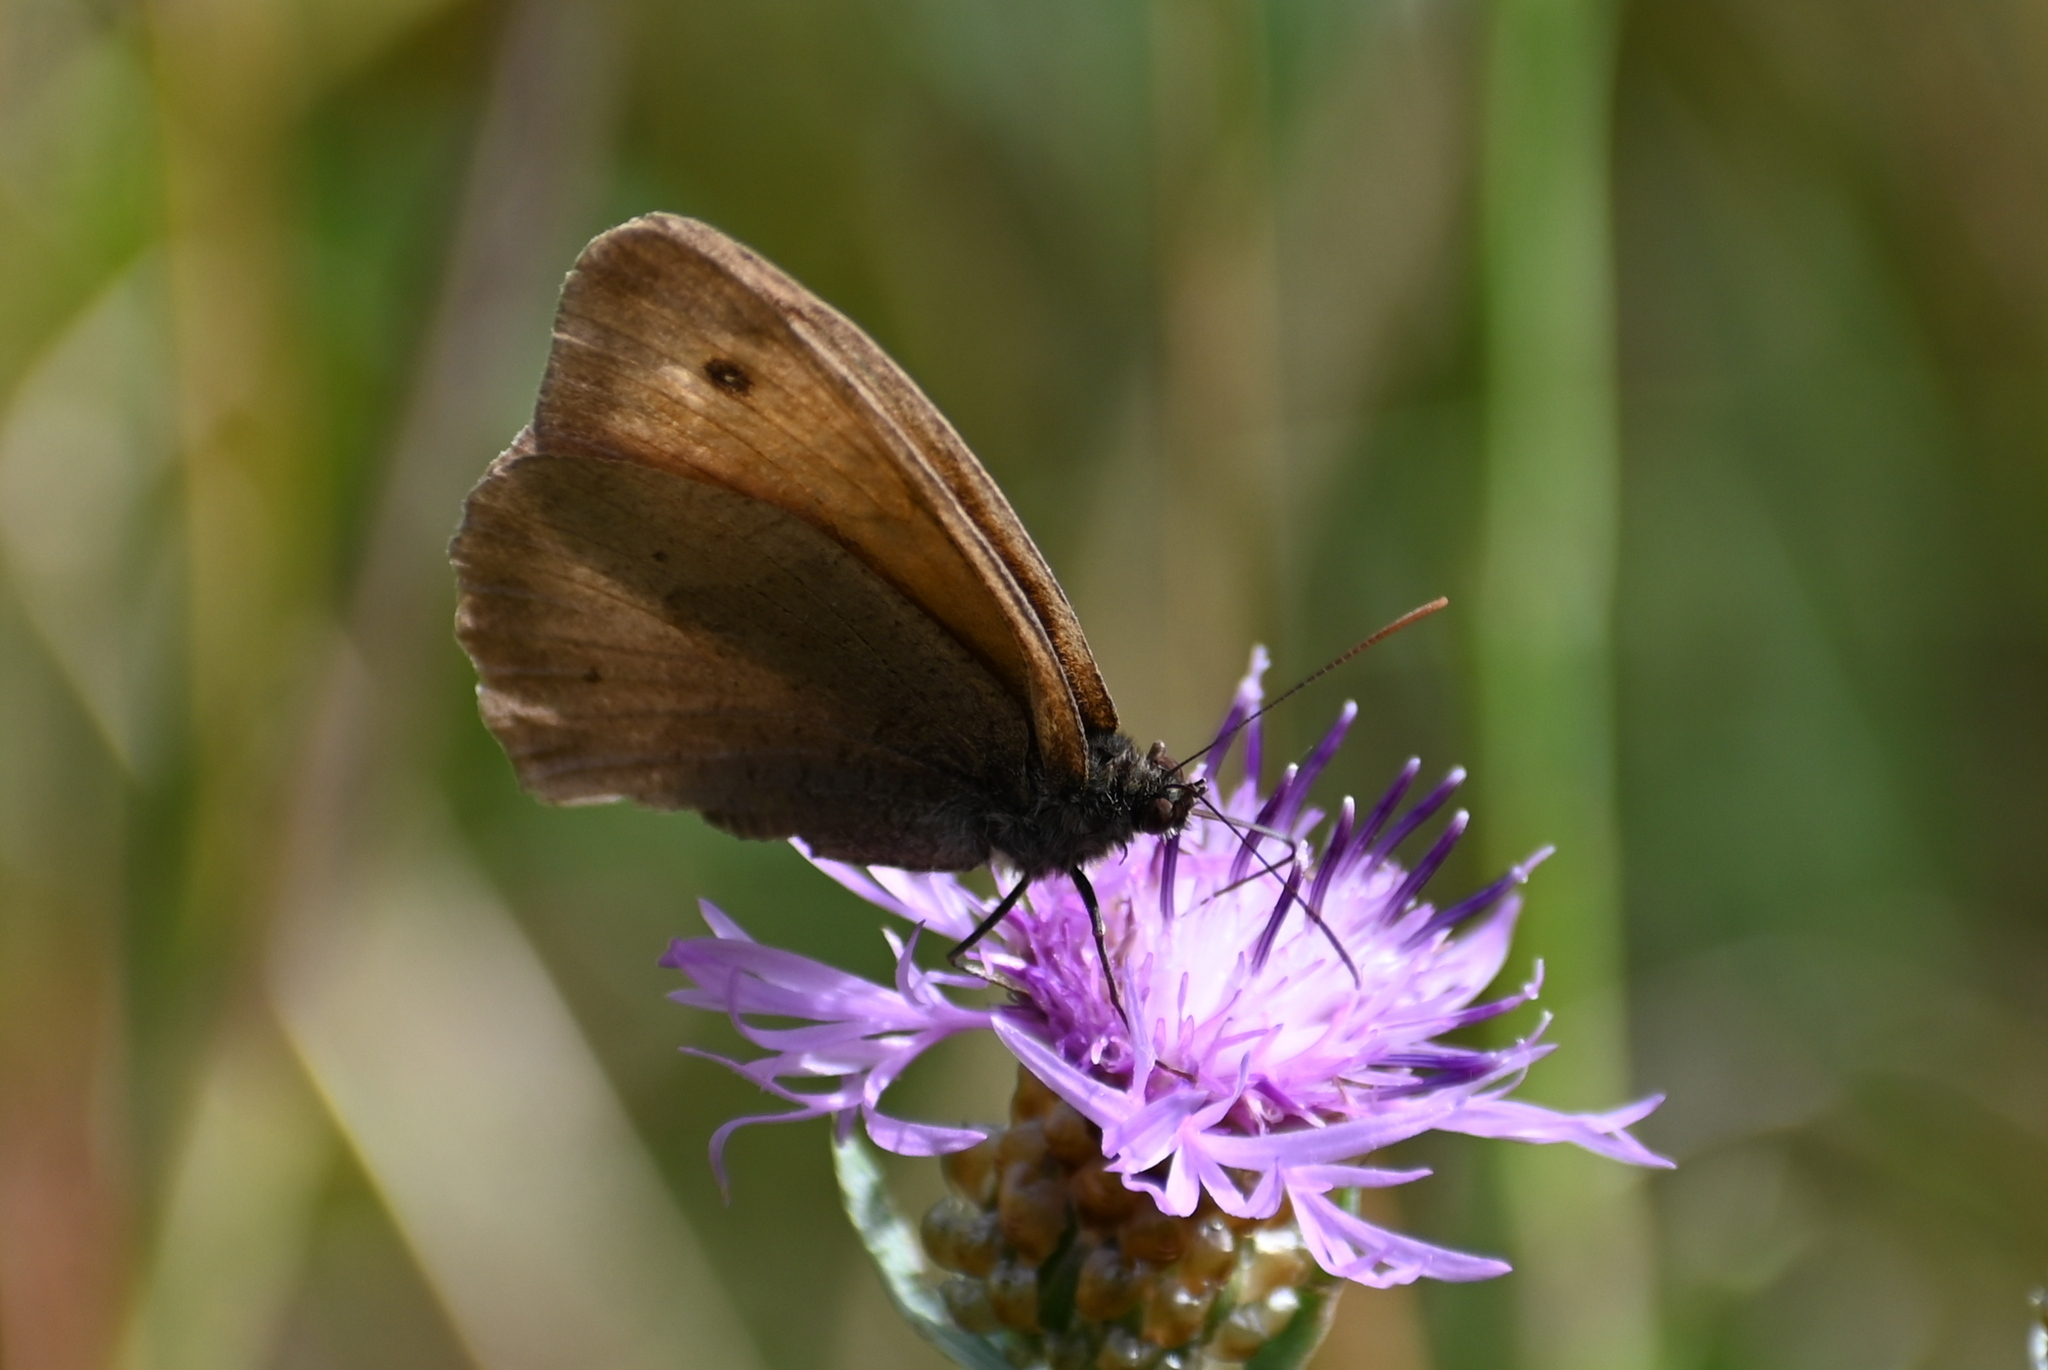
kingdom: Animalia
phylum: Arthropoda
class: Insecta
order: Lepidoptera
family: Nymphalidae
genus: Maniola
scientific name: Maniola jurtina
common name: Meadow brown
